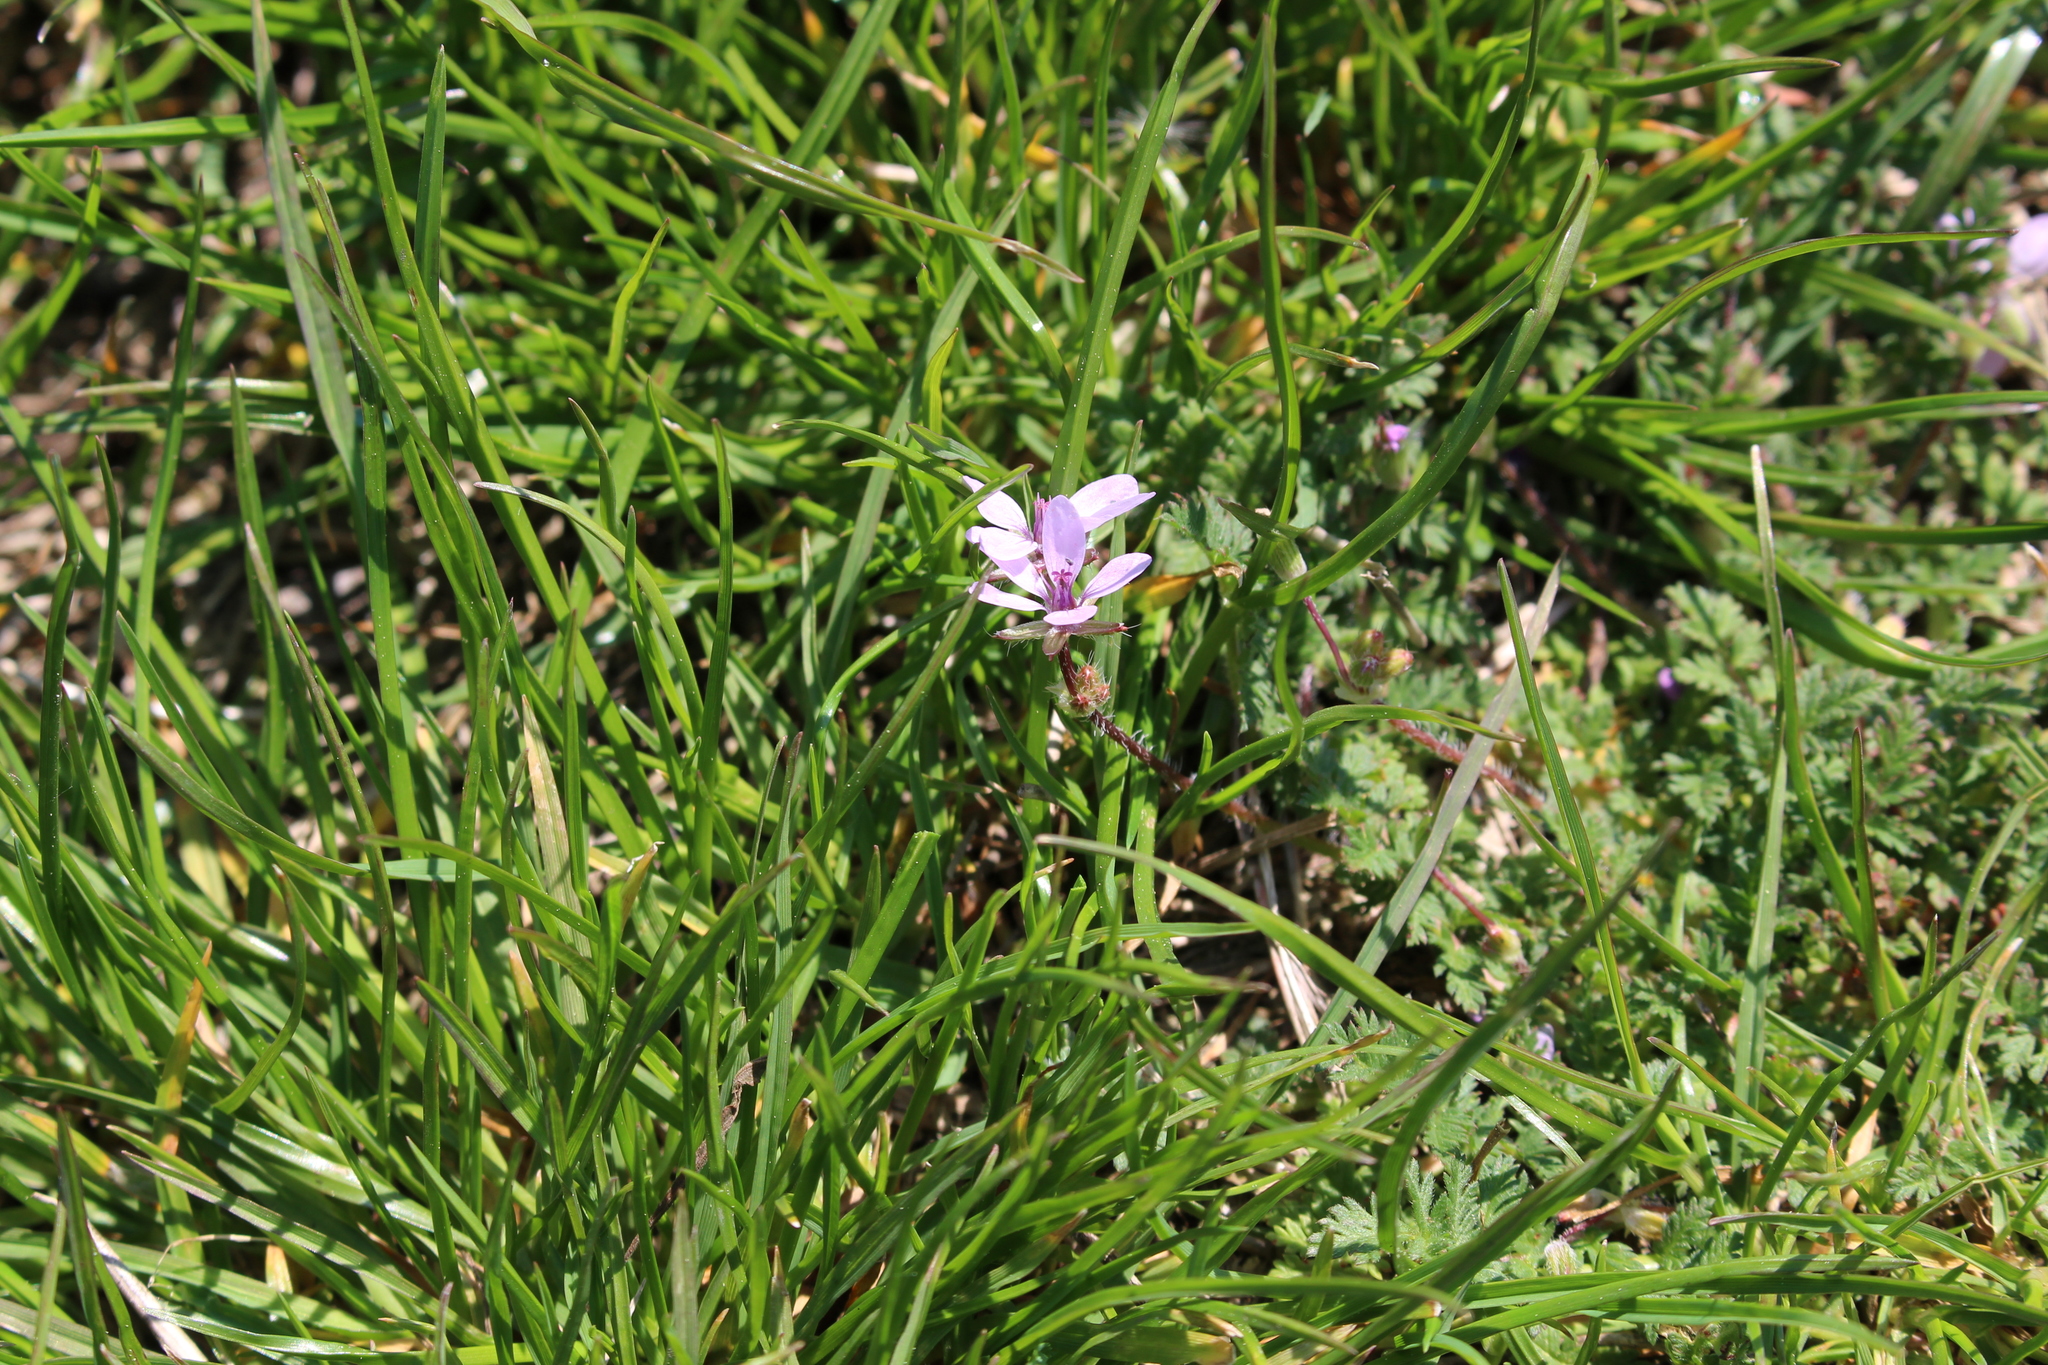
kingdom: Plantae
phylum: Tracheophyta
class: Magnoliopsida
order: Geraniales
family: Geraniaceae
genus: Erodium
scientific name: Erodium cicutarium
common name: Common stork's-bill
